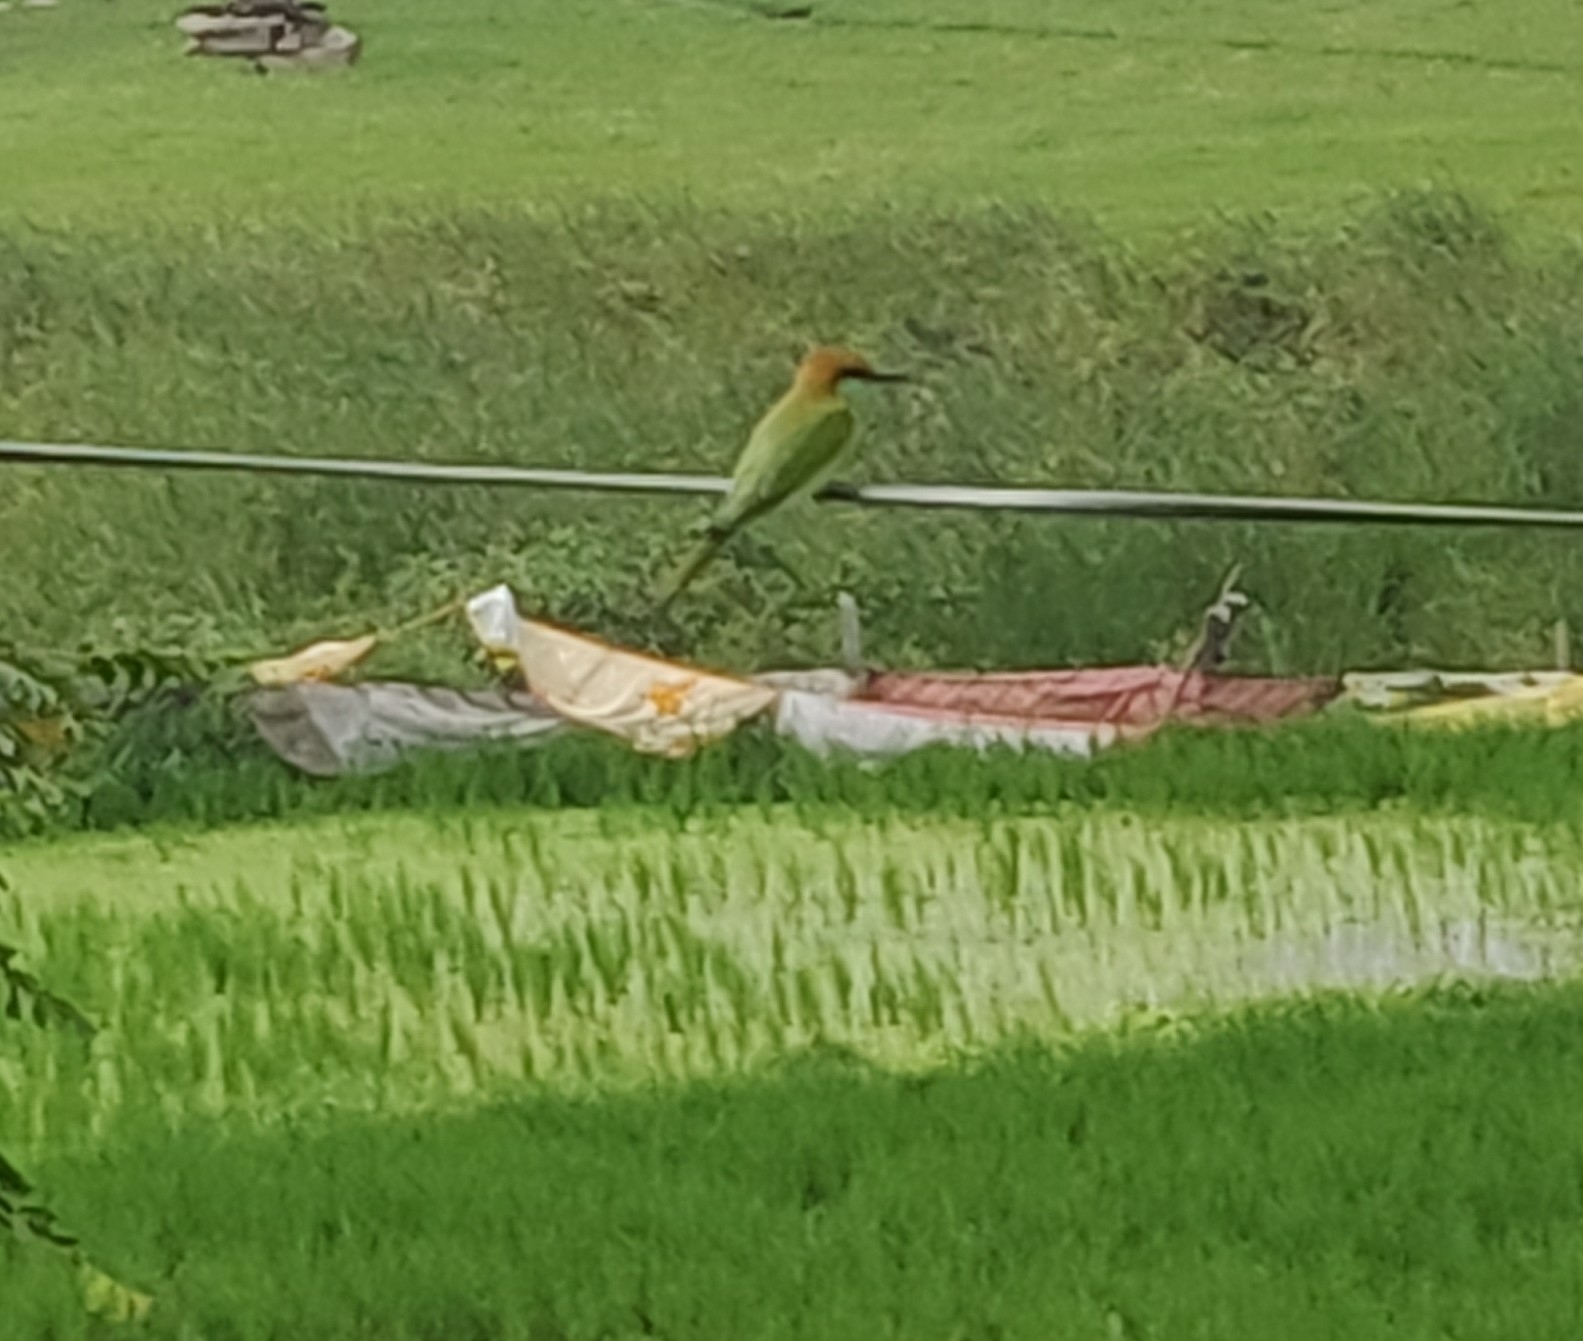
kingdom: Animalia
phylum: Chordata
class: Aves
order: Coraciiformes
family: Meropidae
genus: Merops
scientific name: Merops orientalis
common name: Green bee-eater
